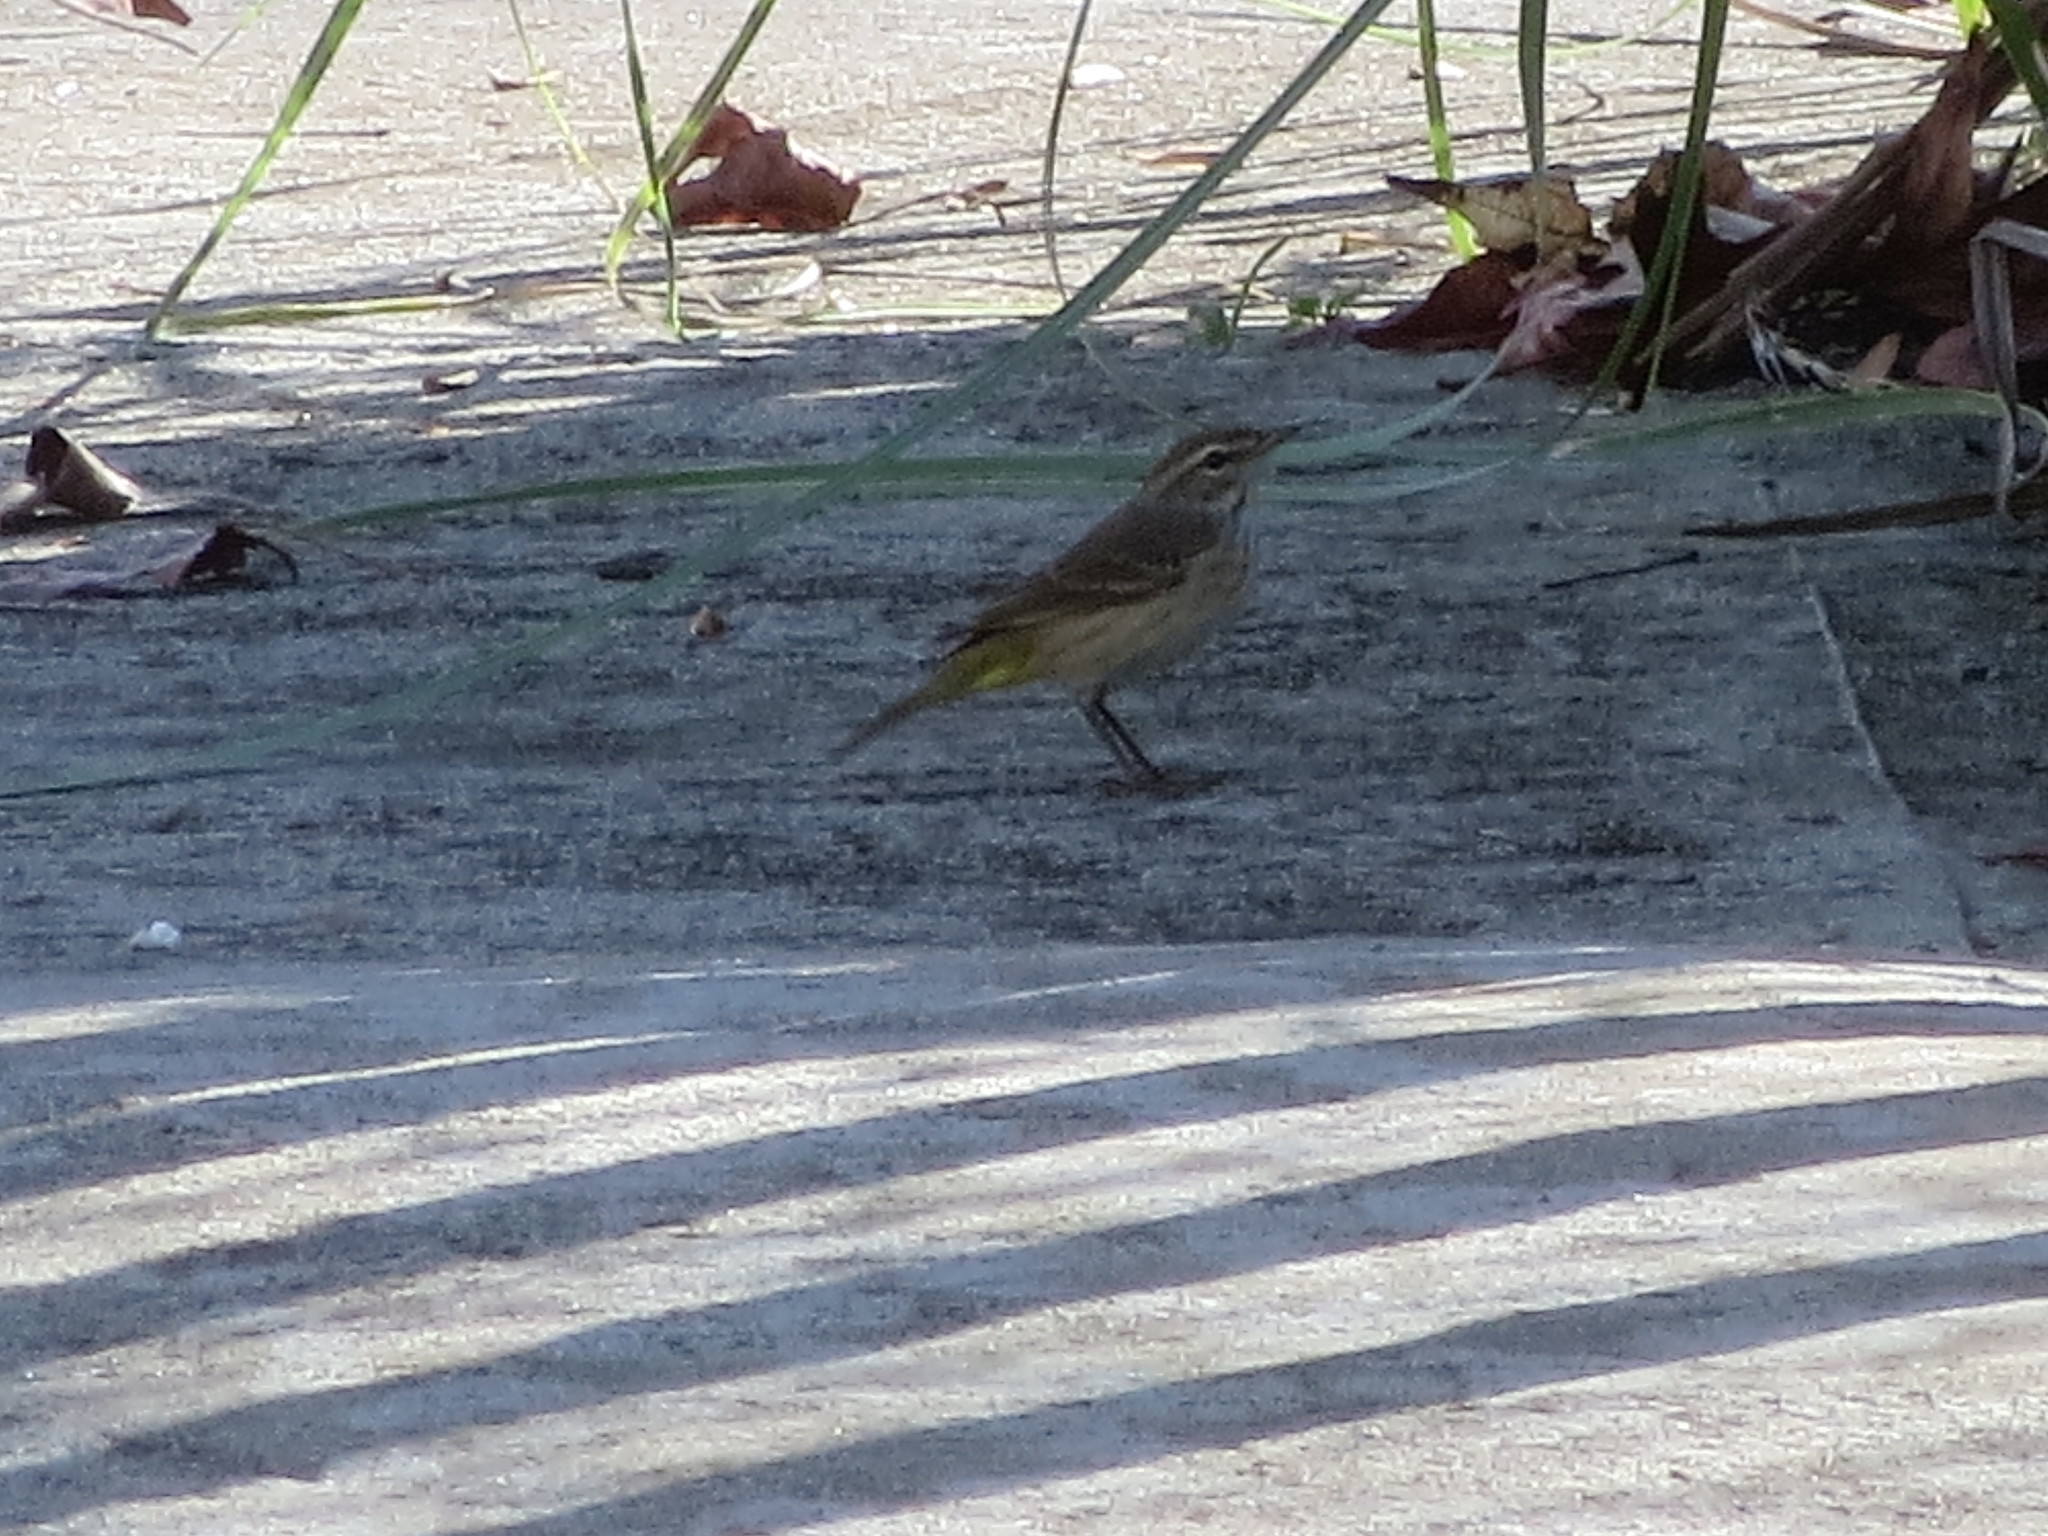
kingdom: Animalia
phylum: Chordata
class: Aves
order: Passeriformes
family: Parulidae
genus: Setophaga
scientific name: Setophaga palmarum
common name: Palm warbler
